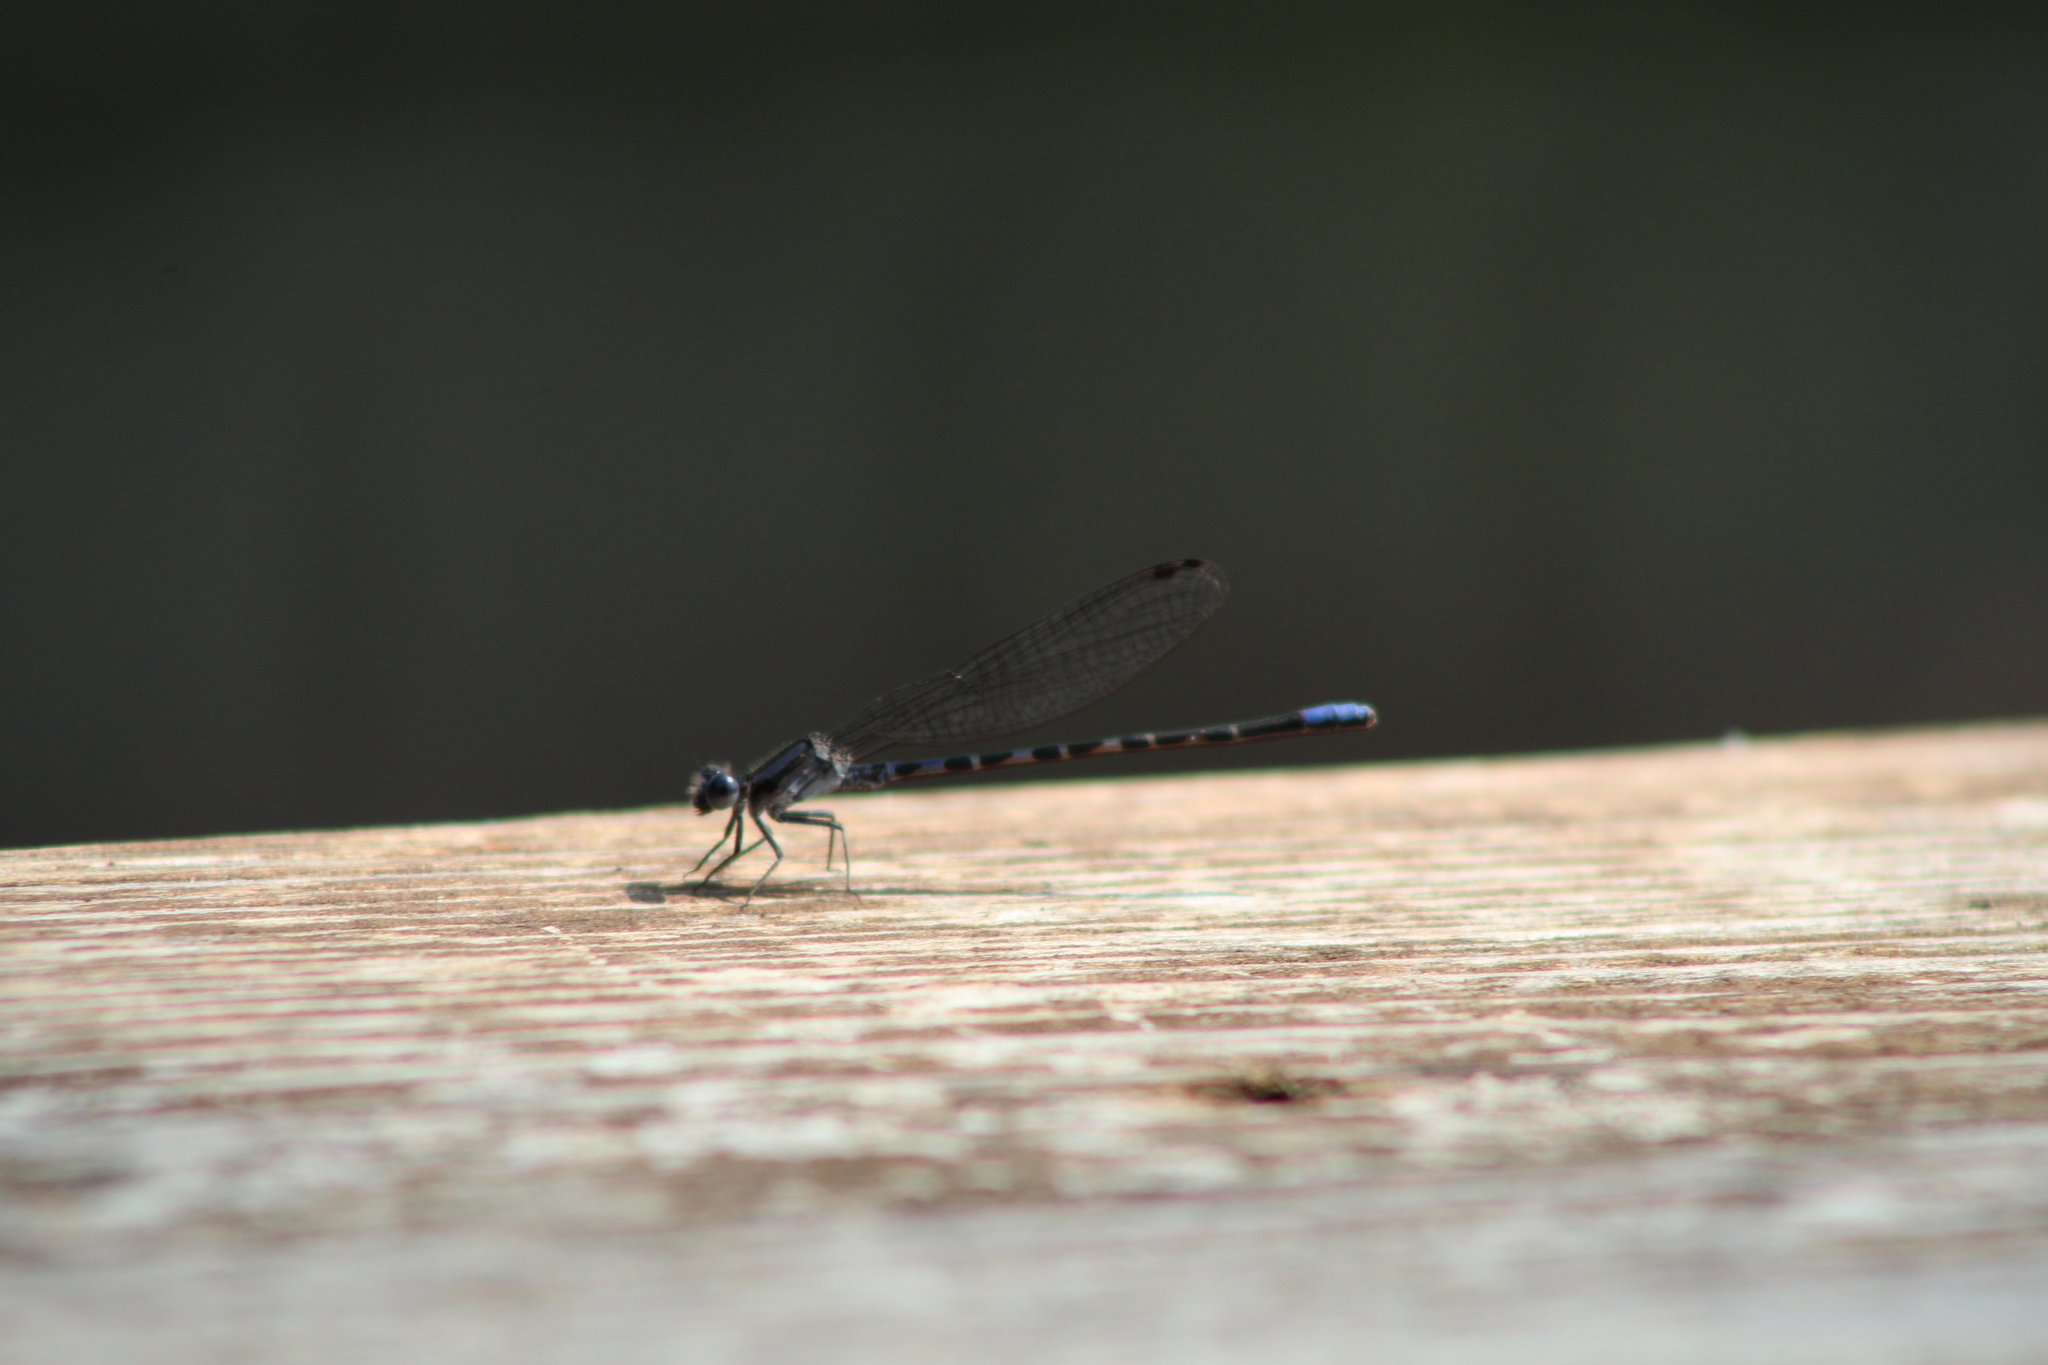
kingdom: Animalia
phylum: Arthropoda
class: Insecta
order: Odonata
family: Coenagrionidae
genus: Argia
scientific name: Argia immunda
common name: Kiowa dancer
